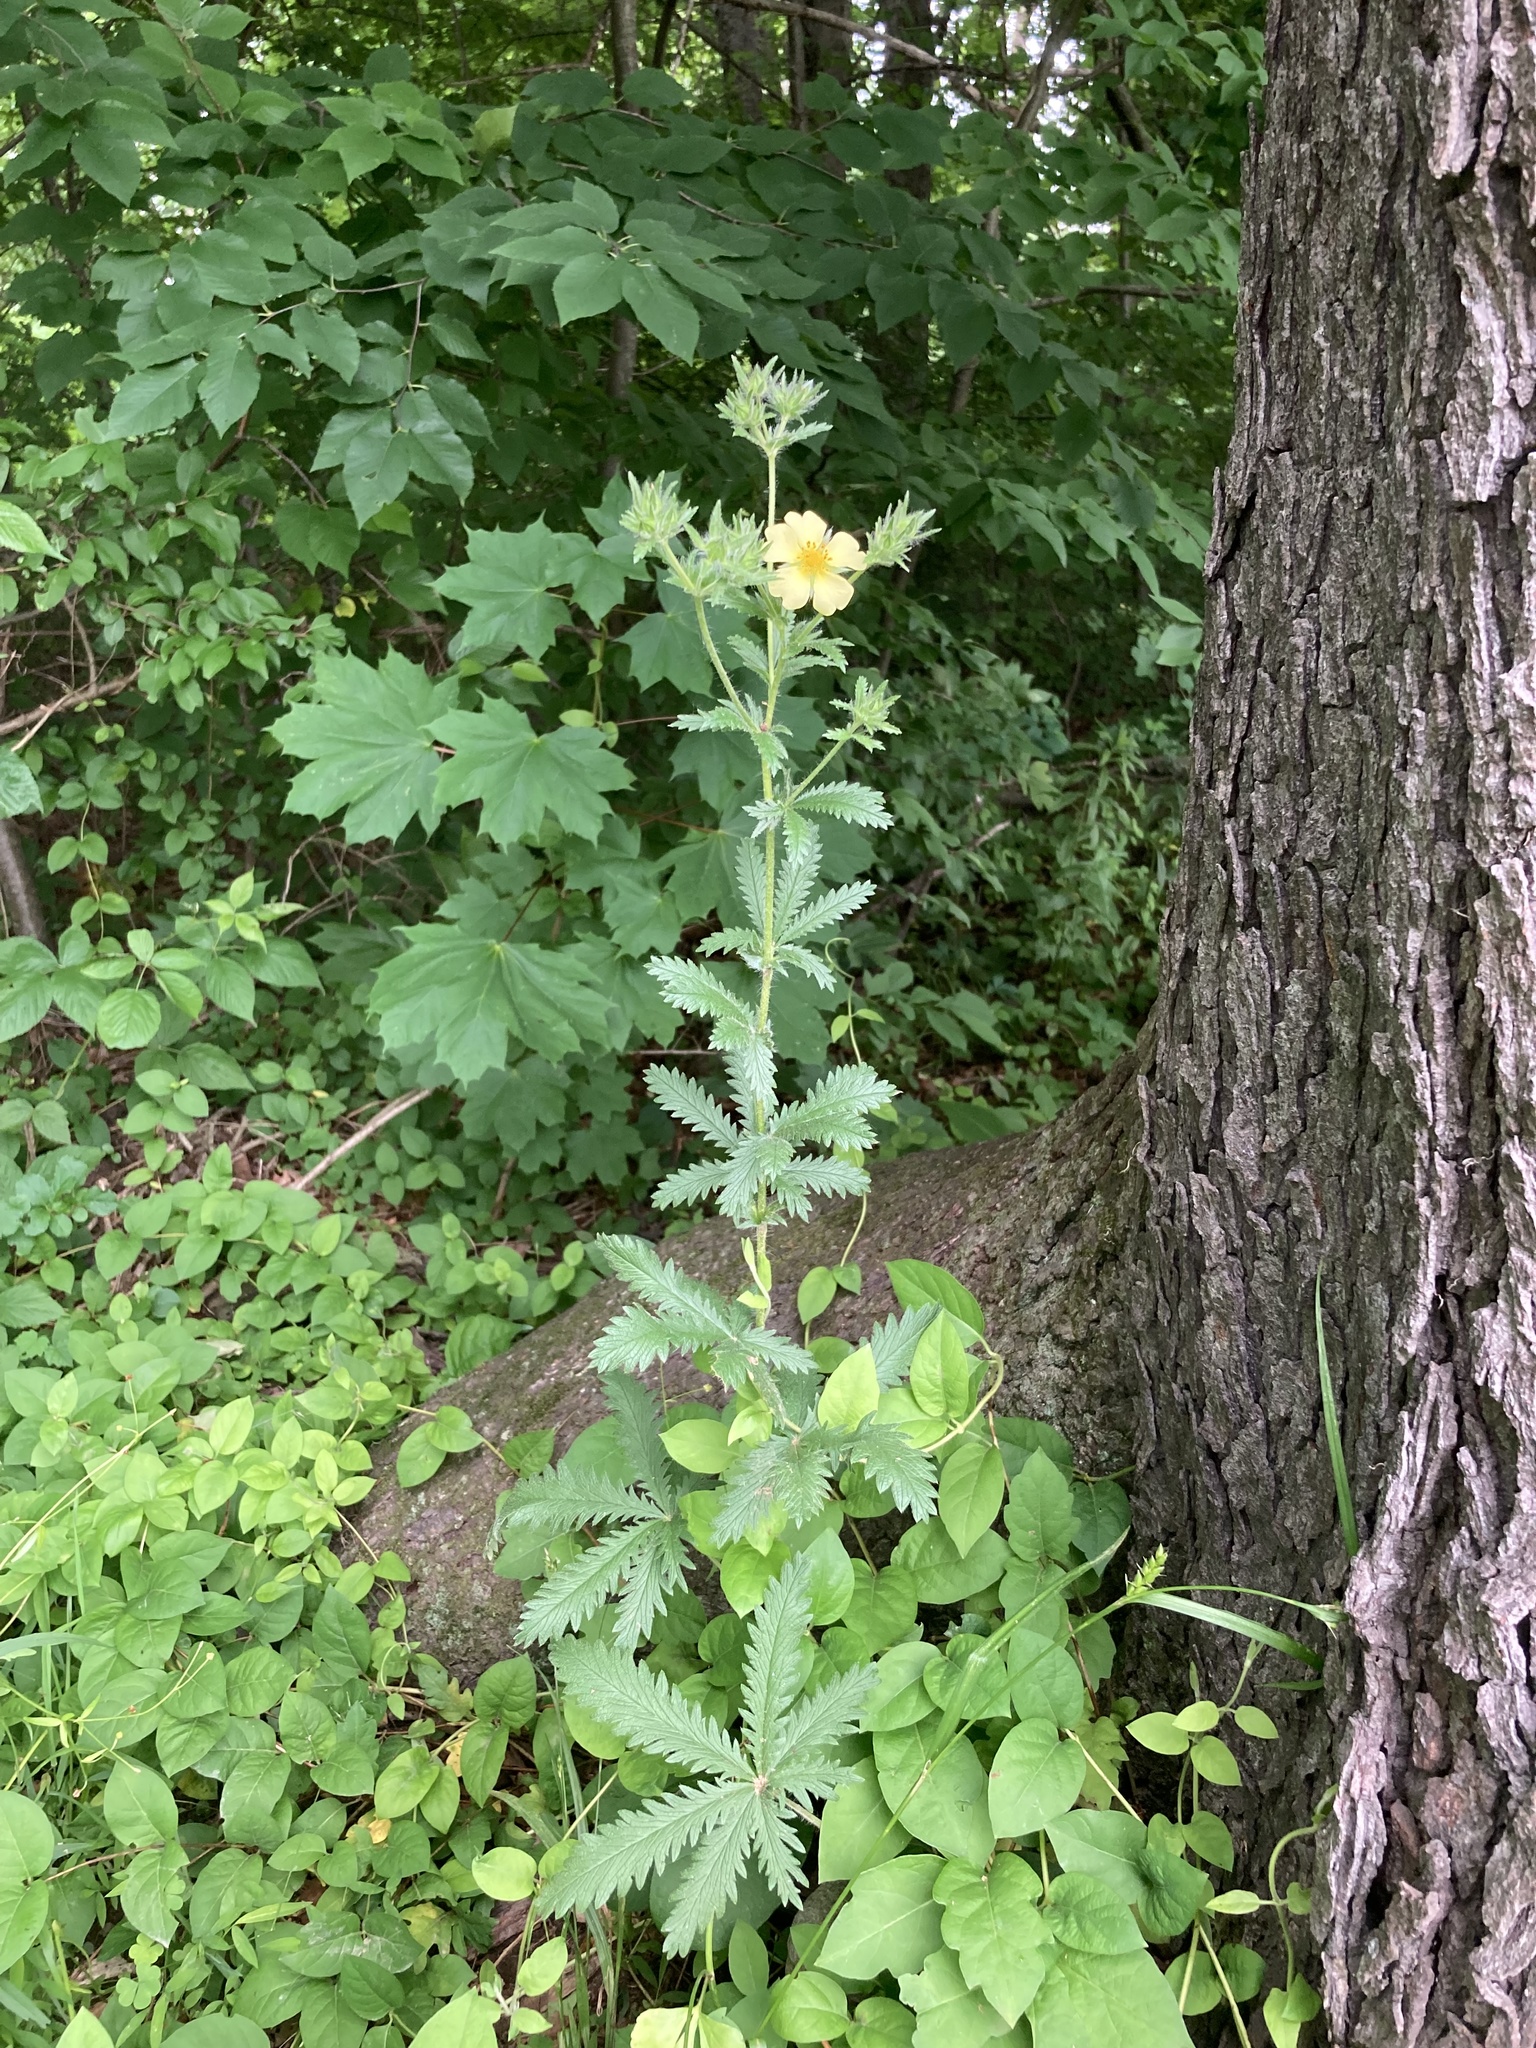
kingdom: Plantae
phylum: Tracheophyta
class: Magnoliopsida
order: Rosales
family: Rosaceae
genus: Potentilla
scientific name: Potentilla recta
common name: Sulphur cinquefoil
